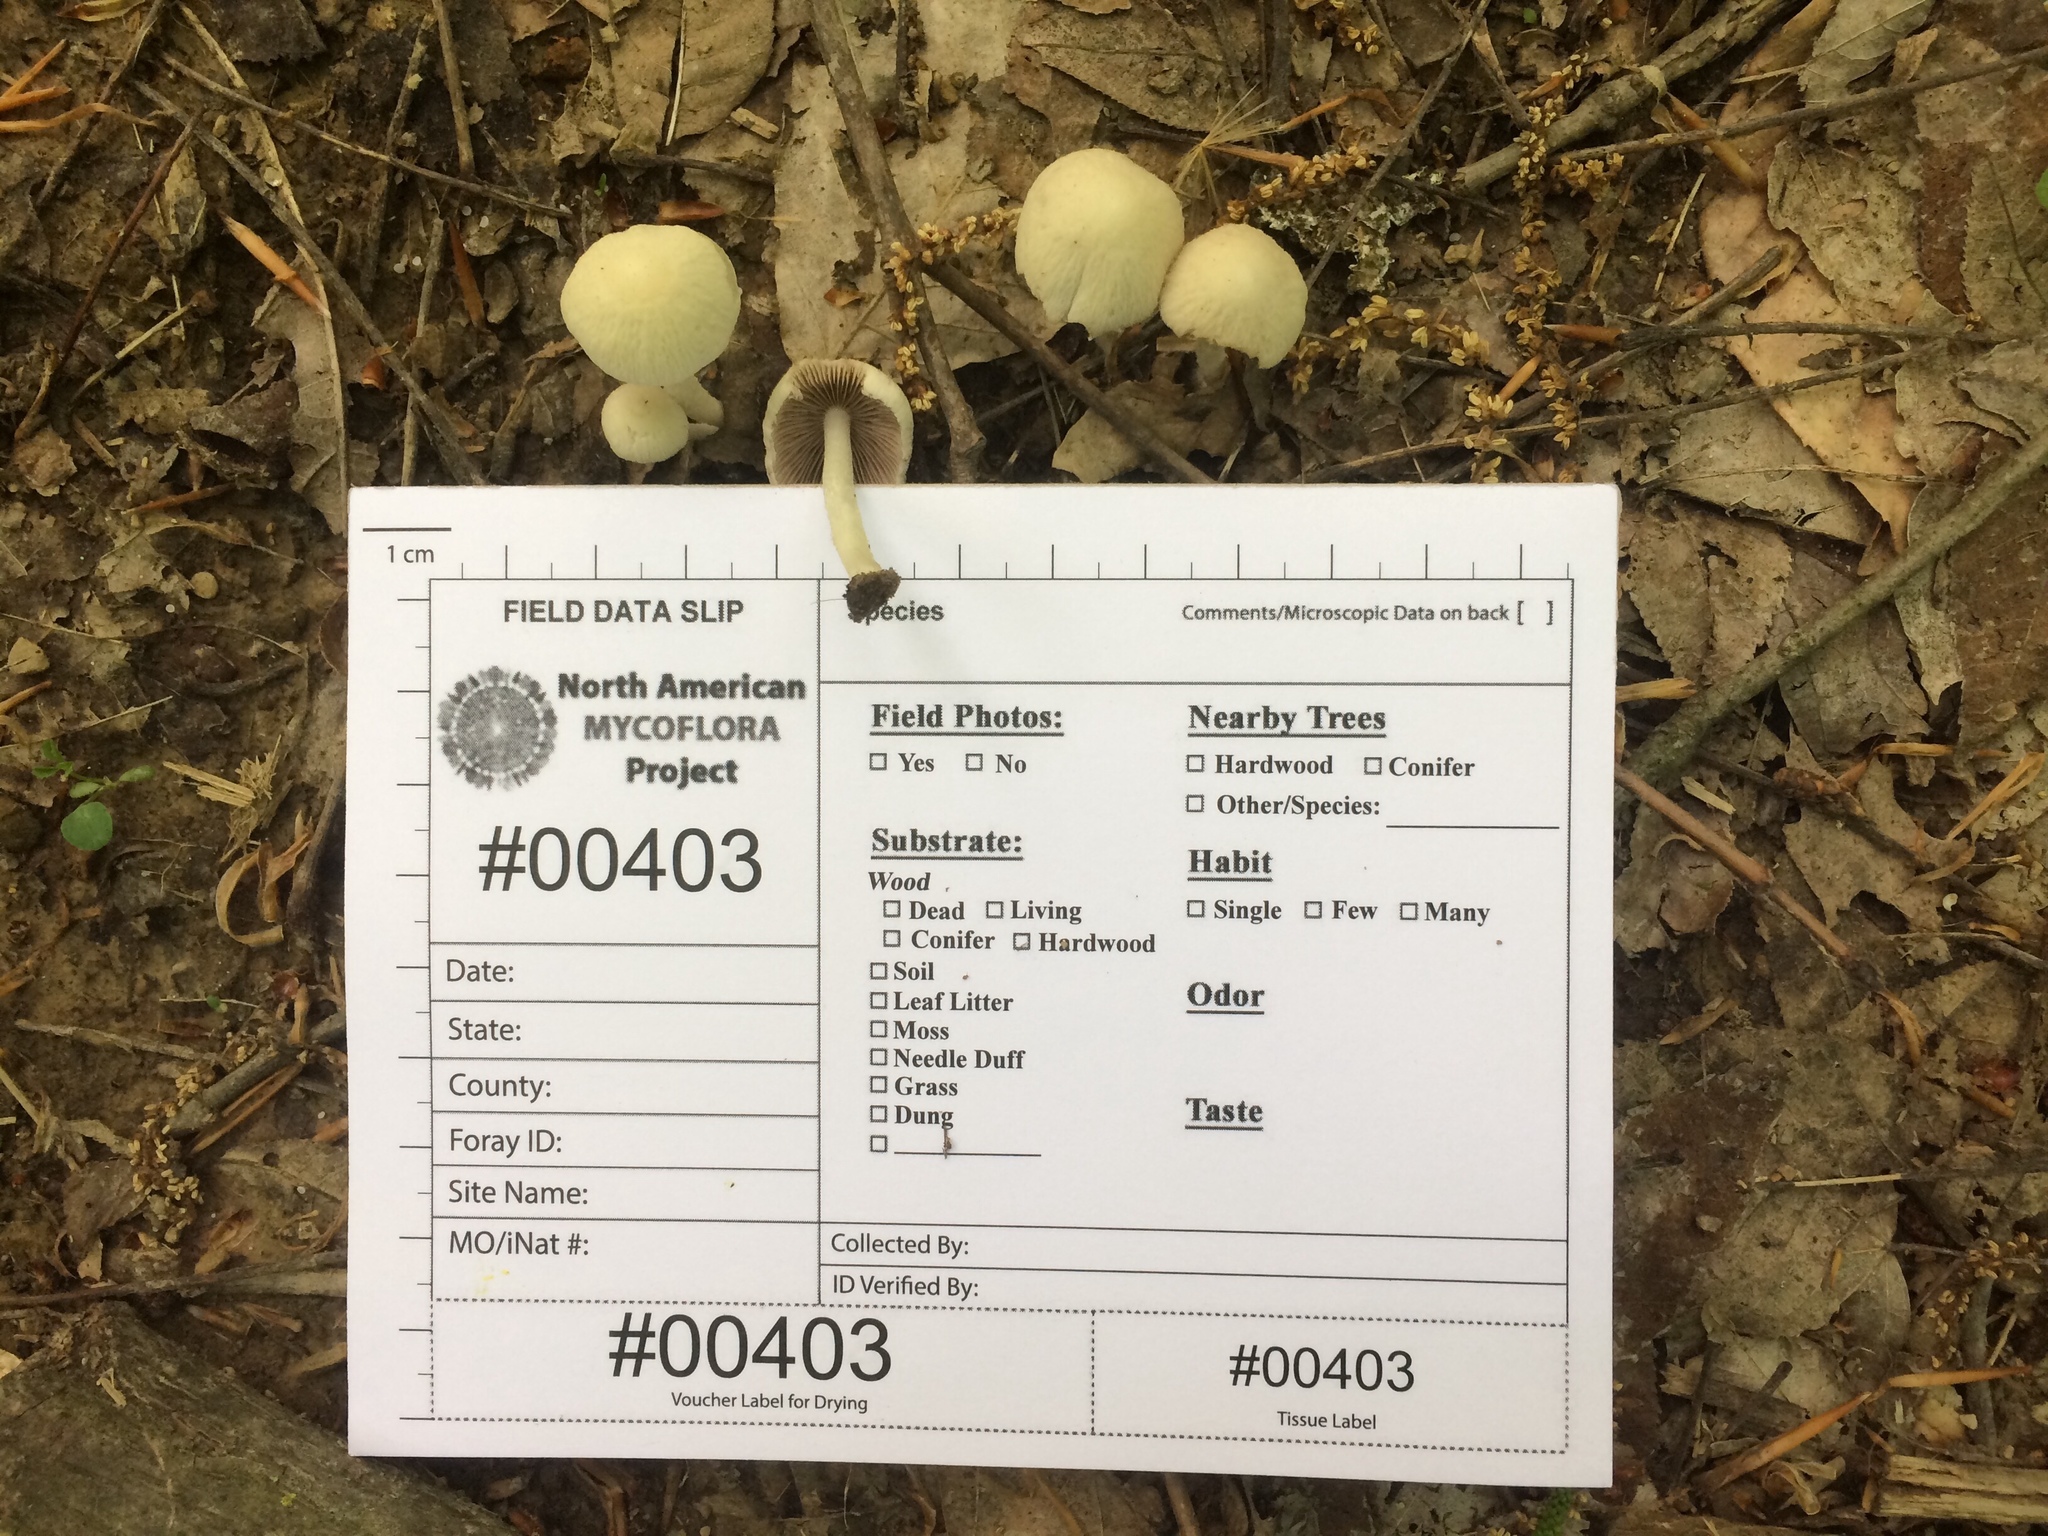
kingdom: Fungi
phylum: Basidiomycota
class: Agaricomycetes
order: Agaricales
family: Psathyrellaceae
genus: Candolleomyces
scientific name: Candolleomyces candolleanus
